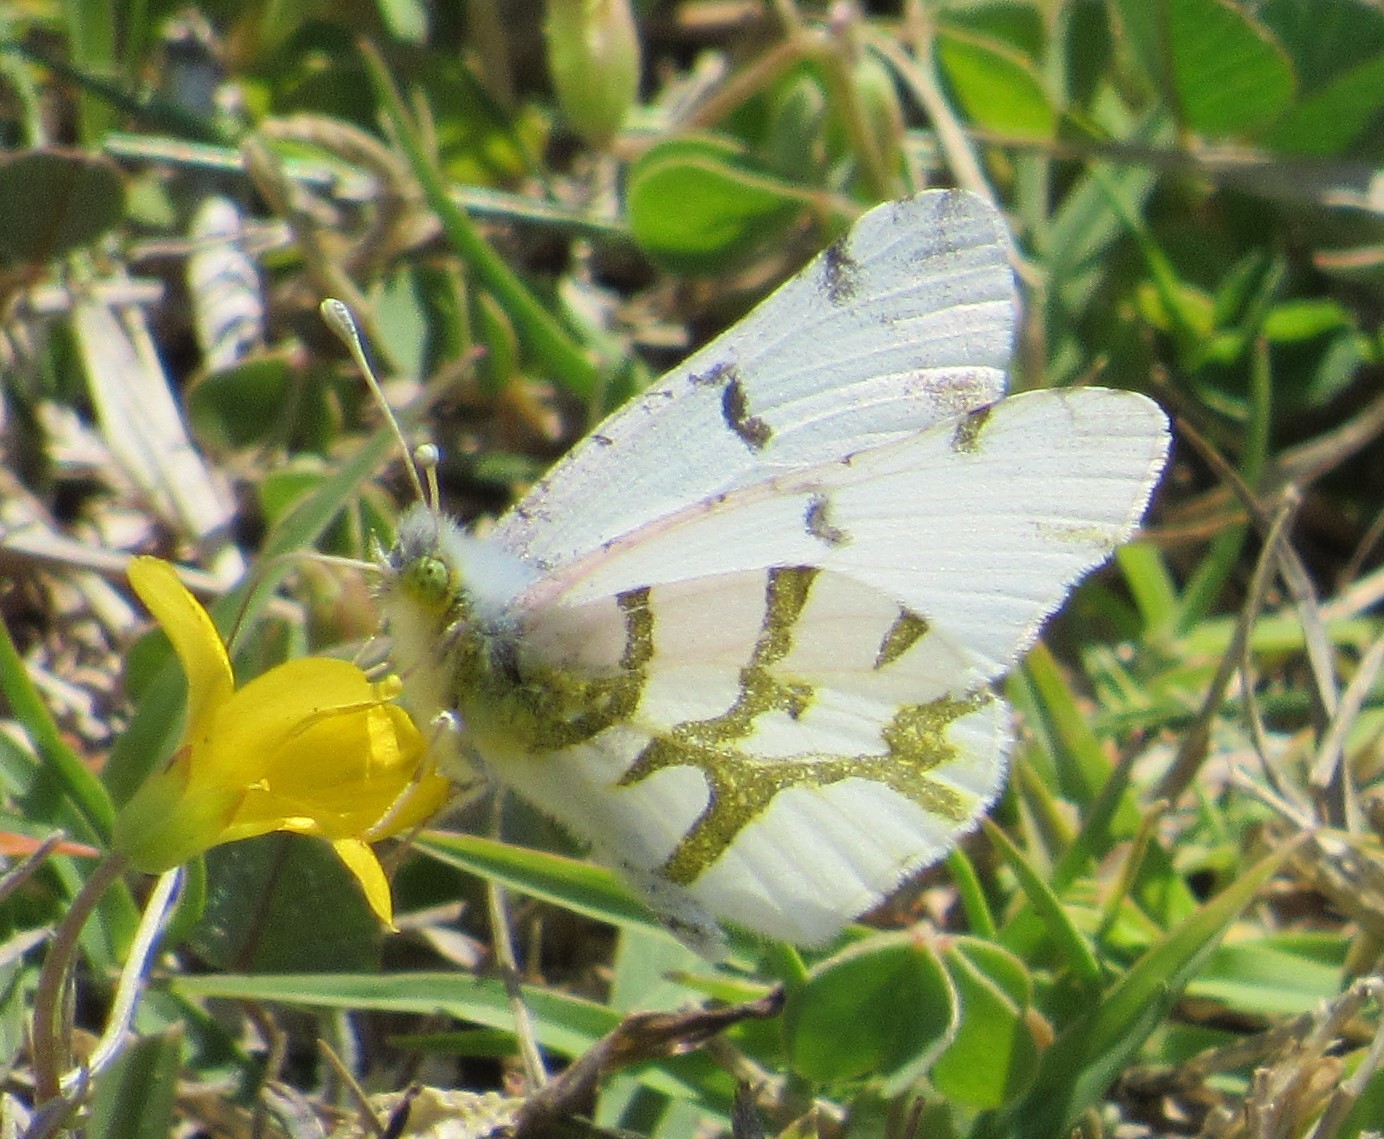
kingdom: Animalia
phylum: Arthropoda
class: Insecta
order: Lepidoptera
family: Pieridae
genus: Euchloe
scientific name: Euchloe olympia
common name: Olympia
